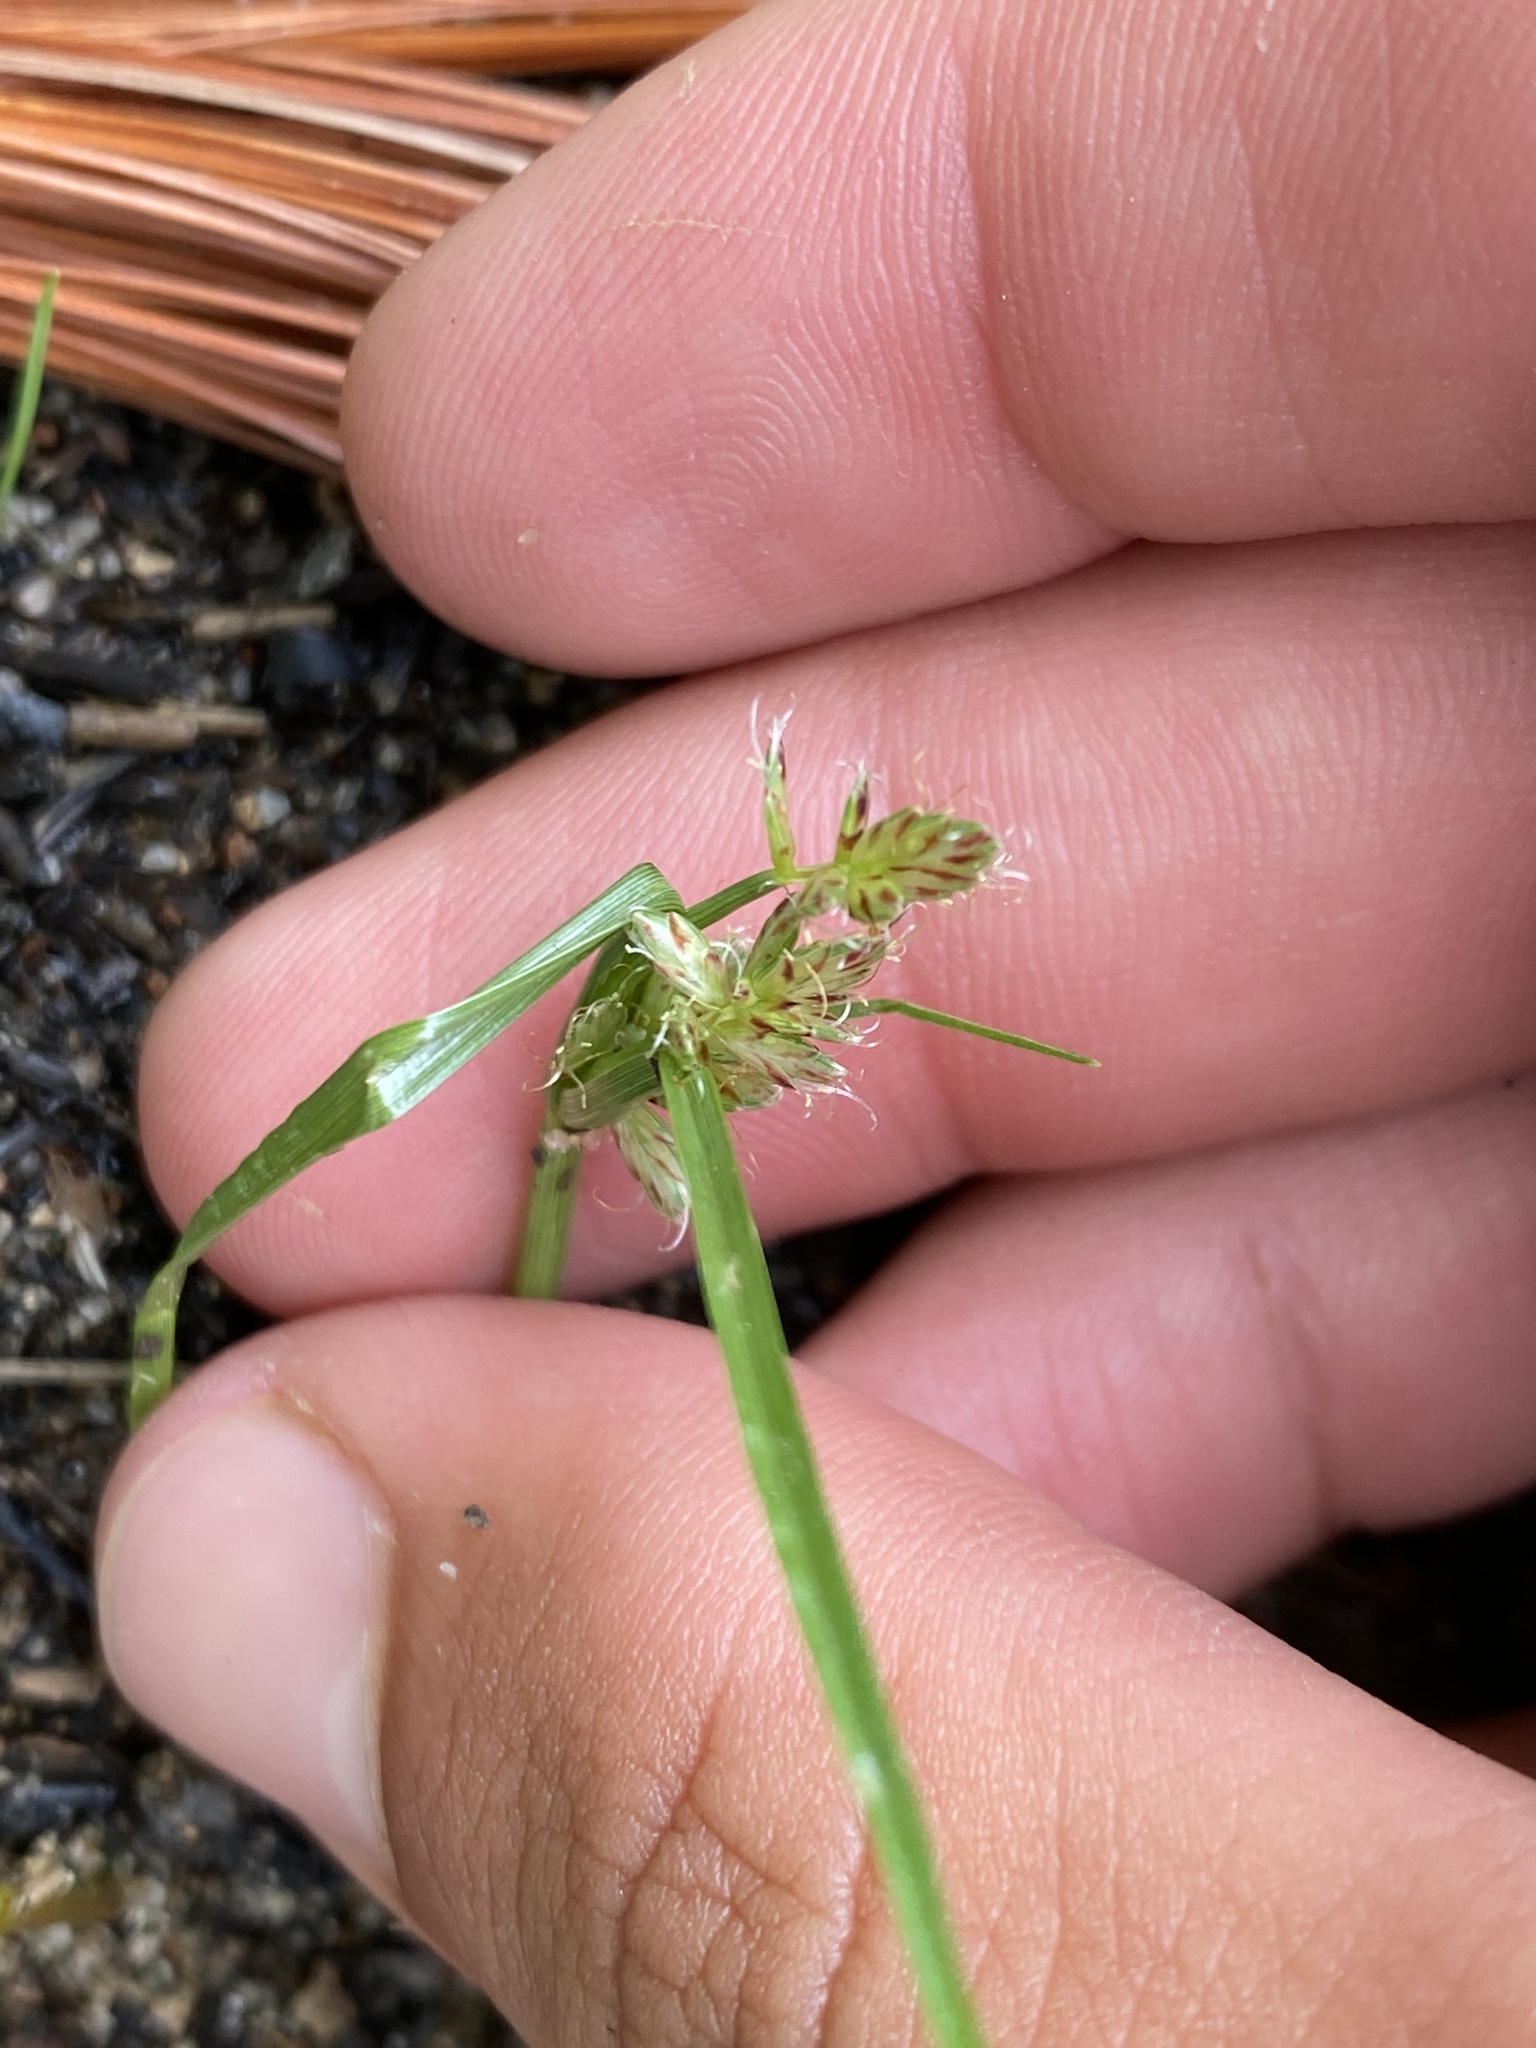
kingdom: Plantae
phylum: Tracheophyta
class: Liliopsida
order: Poales
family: Cyperaceae
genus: Cyperus
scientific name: Cyperus diandrus
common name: Low cyperus
